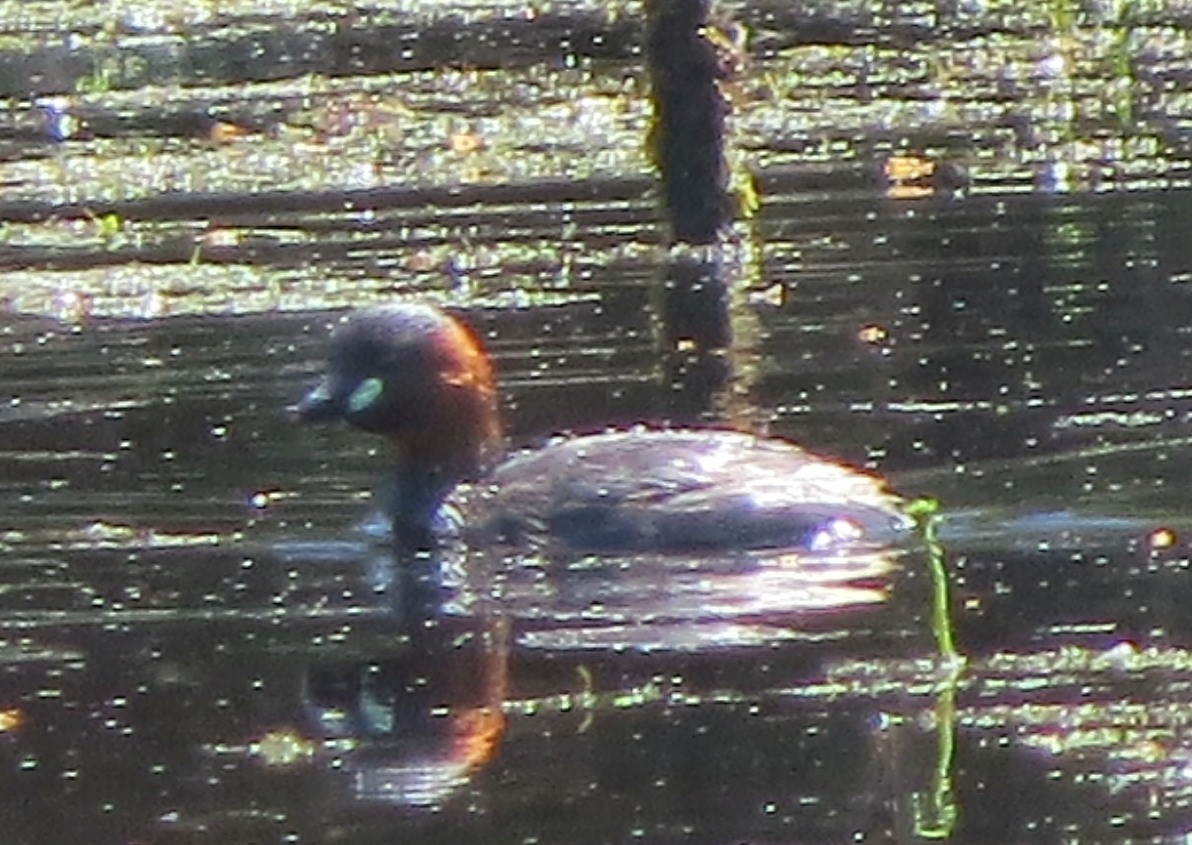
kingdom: Animalia
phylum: Chordata
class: Aves
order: Podicipediformes
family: Podicipedidae
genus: Tachybaptus
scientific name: Tachybaptus ruficollis
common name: Little grebe
